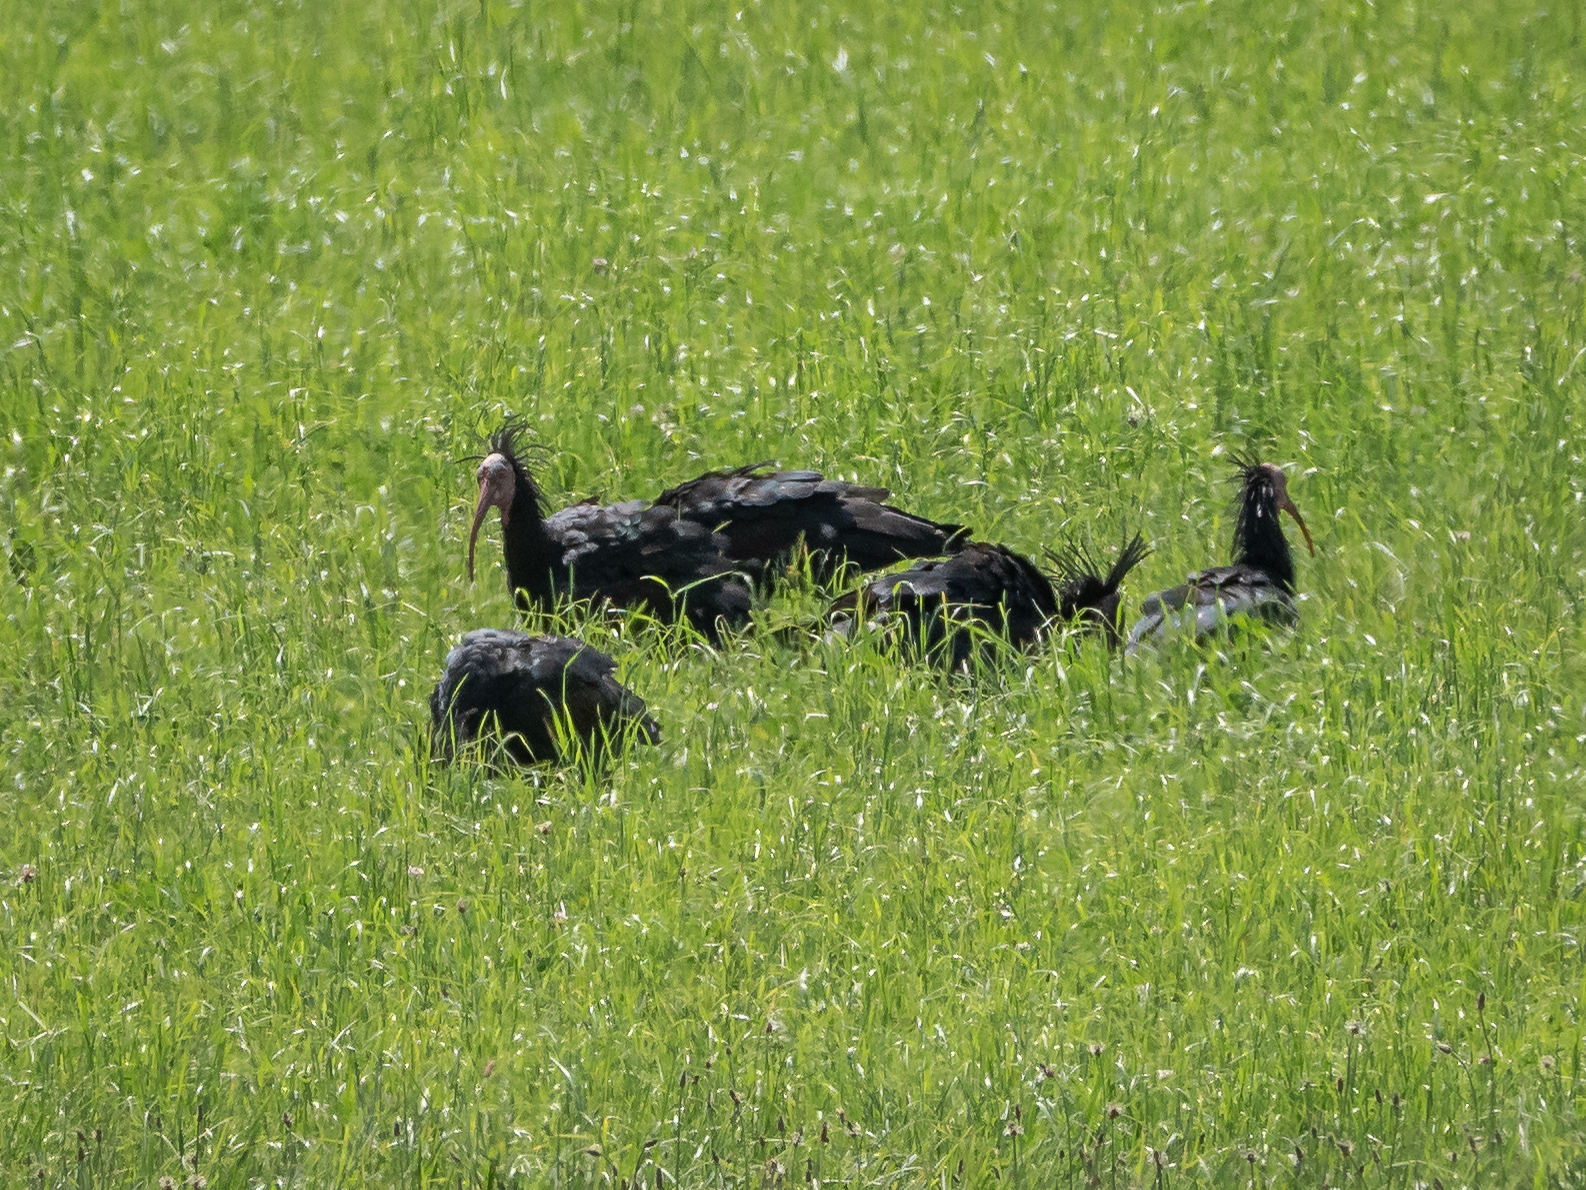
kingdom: Animalia
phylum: Chordata
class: Aves
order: Pelecaniformes
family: Threskiornithidae
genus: Geronticus
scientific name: Geronticus eremita
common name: Northern bald ibis
